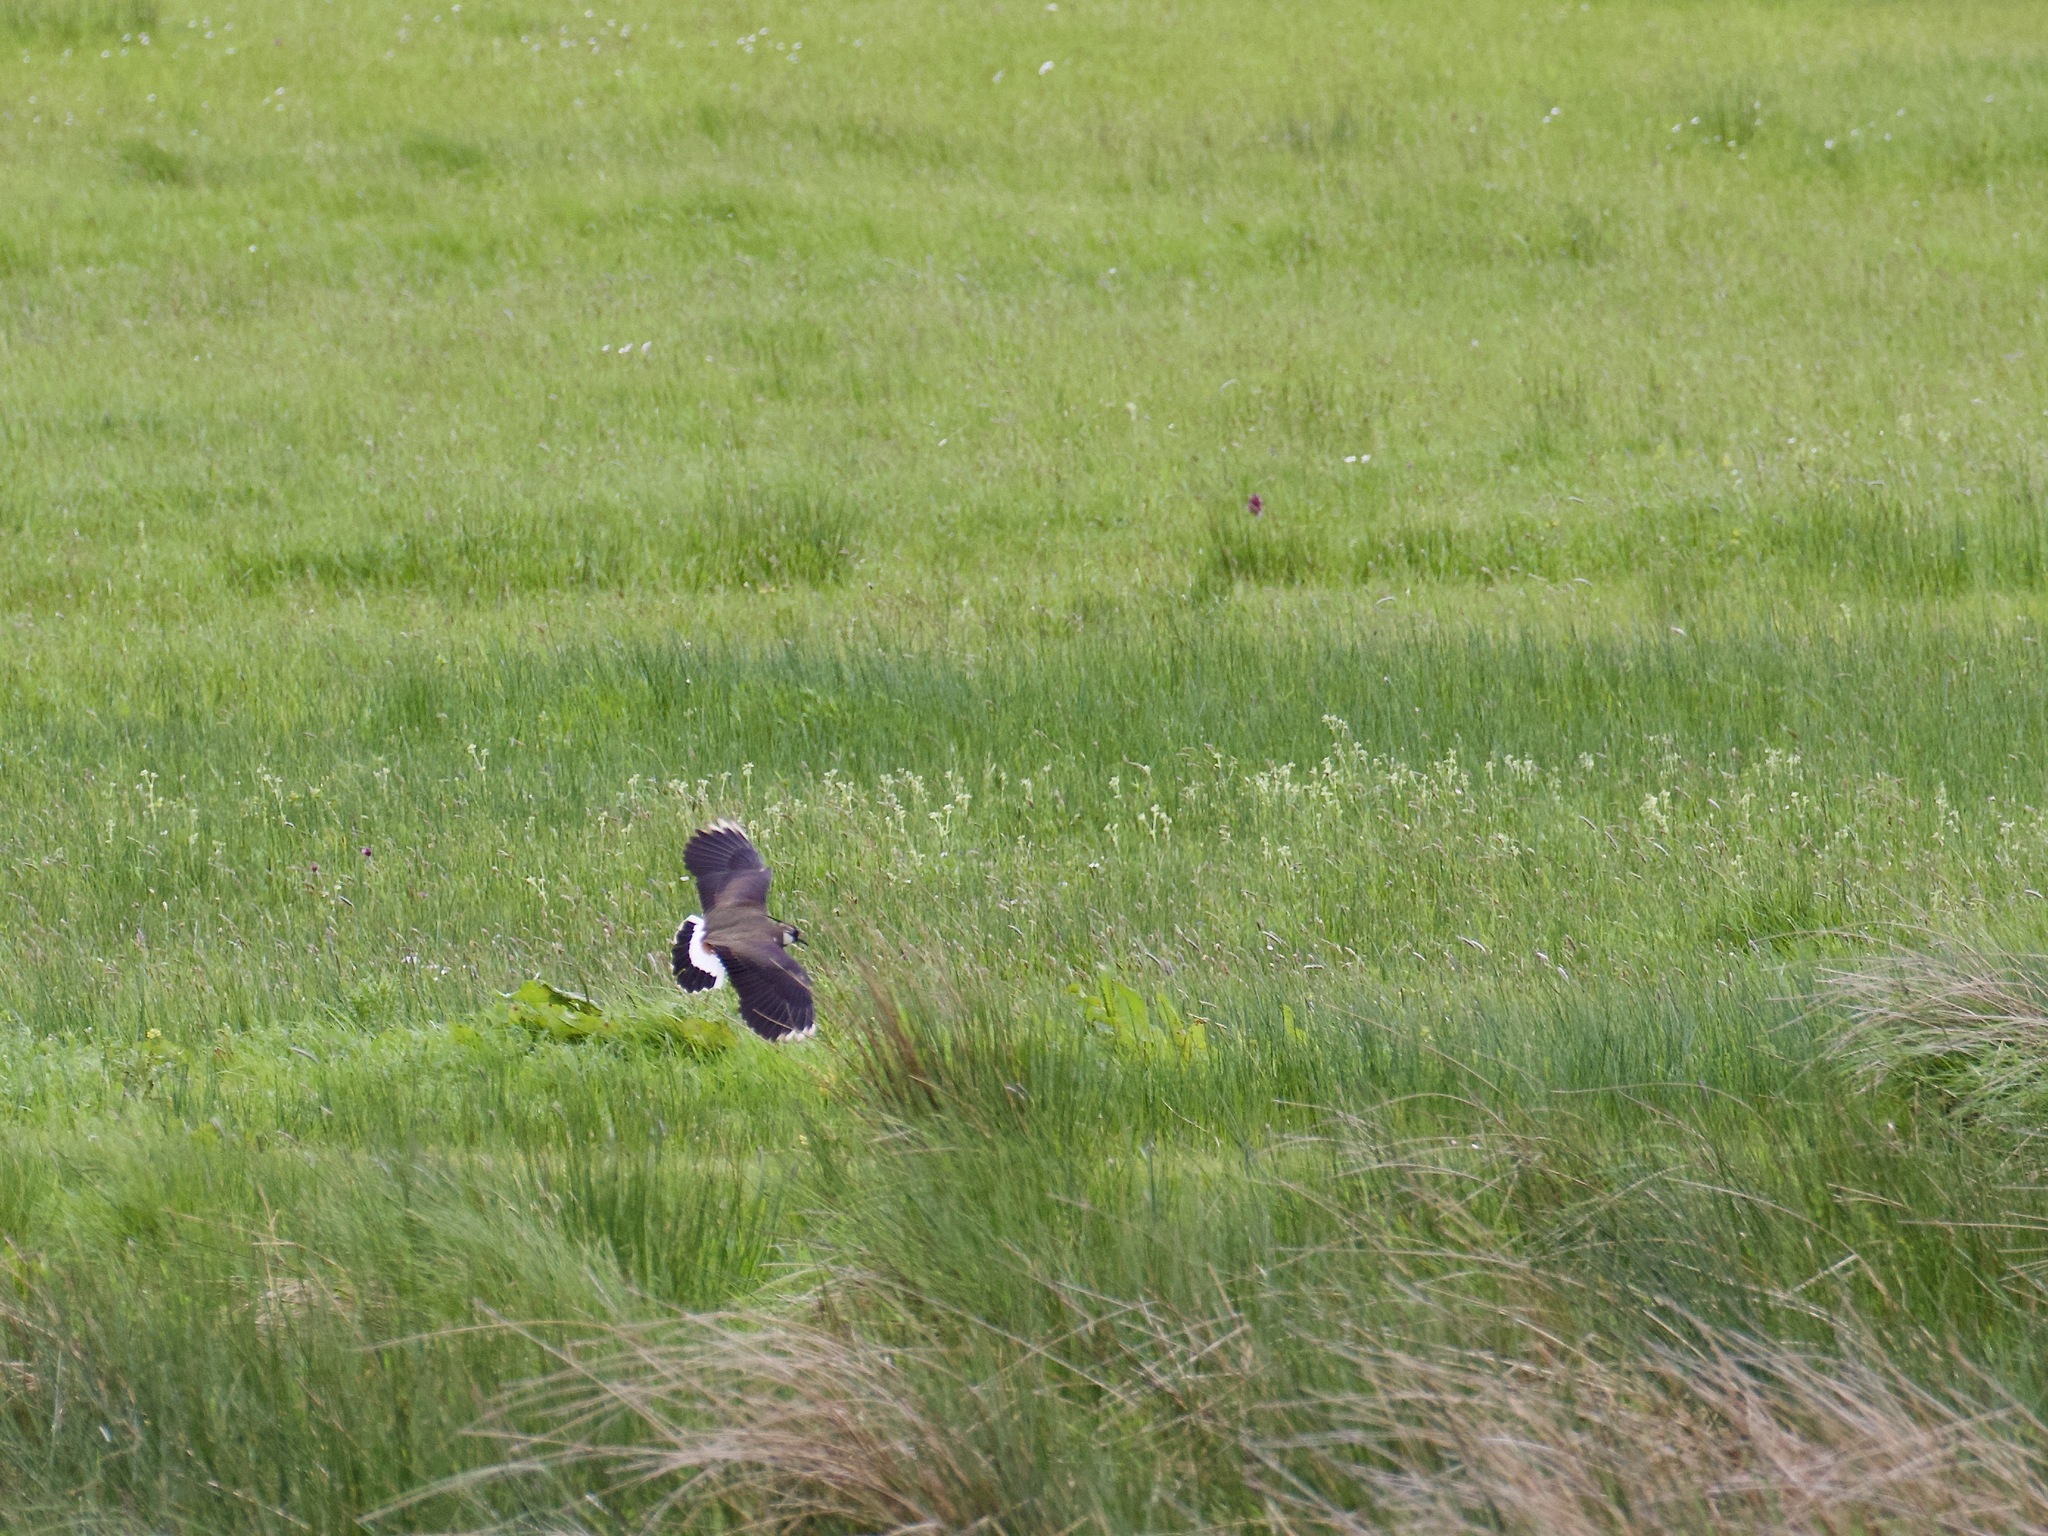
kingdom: Animalia
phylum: Chordata
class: Aves
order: Charadriiformes
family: Charadriidae
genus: Vanellus
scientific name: Vanellus vanellus
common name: Northern lapwing
